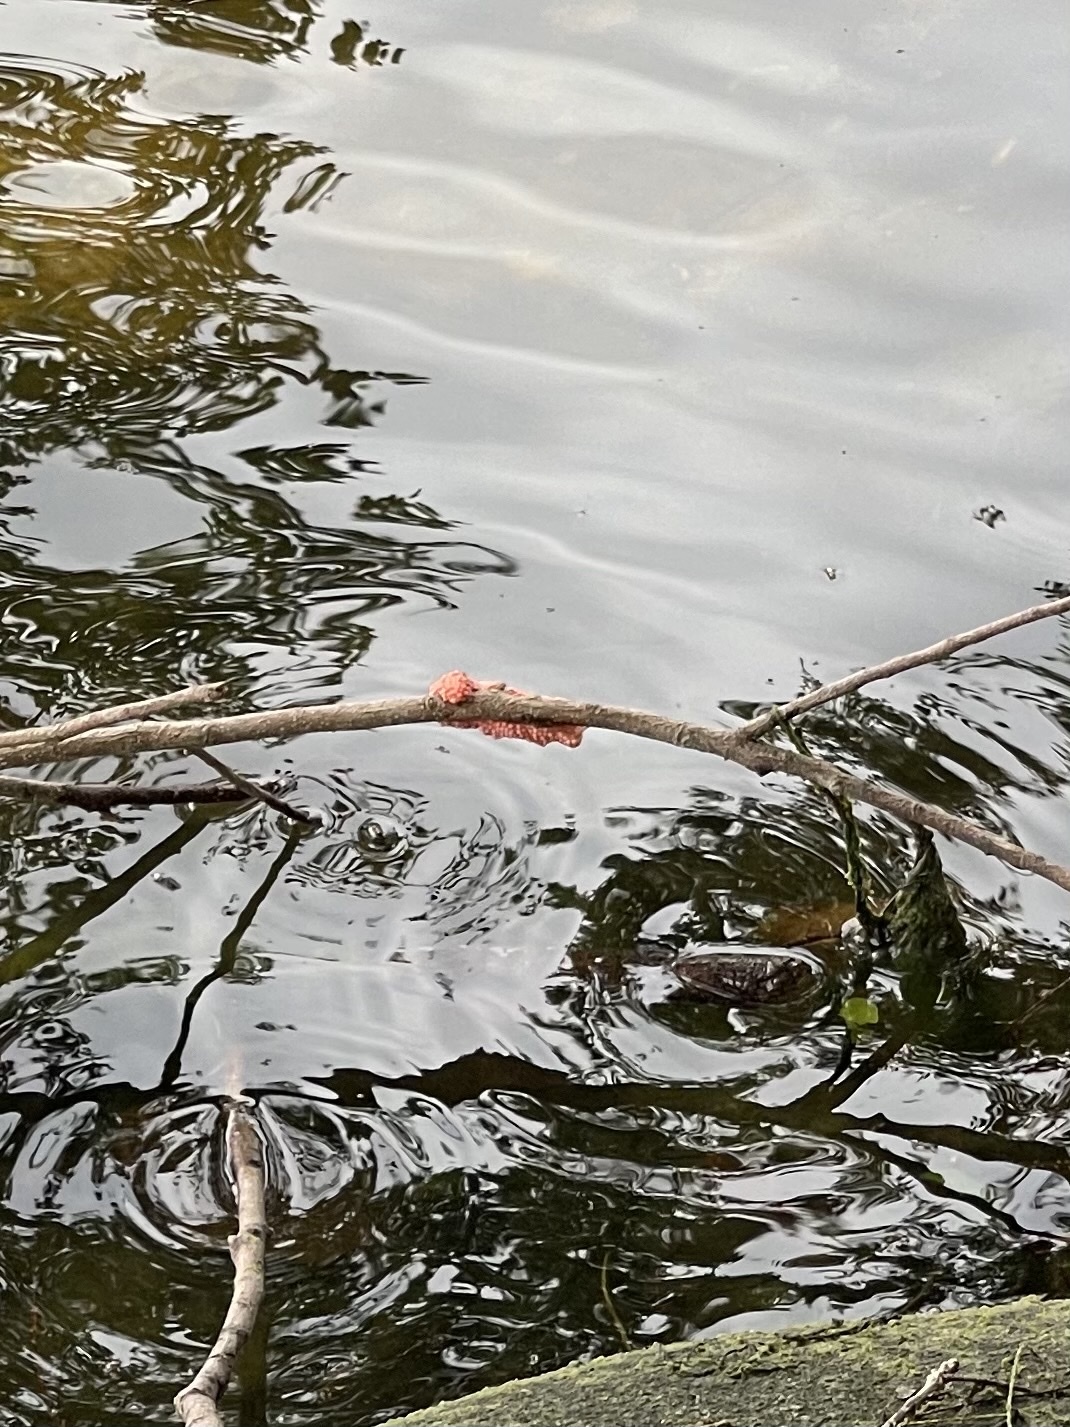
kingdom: Animalia
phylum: Mollusca
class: Gastropoda
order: Architaenioglossa
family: Ampullariidae
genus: Pomacea
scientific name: Pomacea maculata
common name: Giant applesnail
